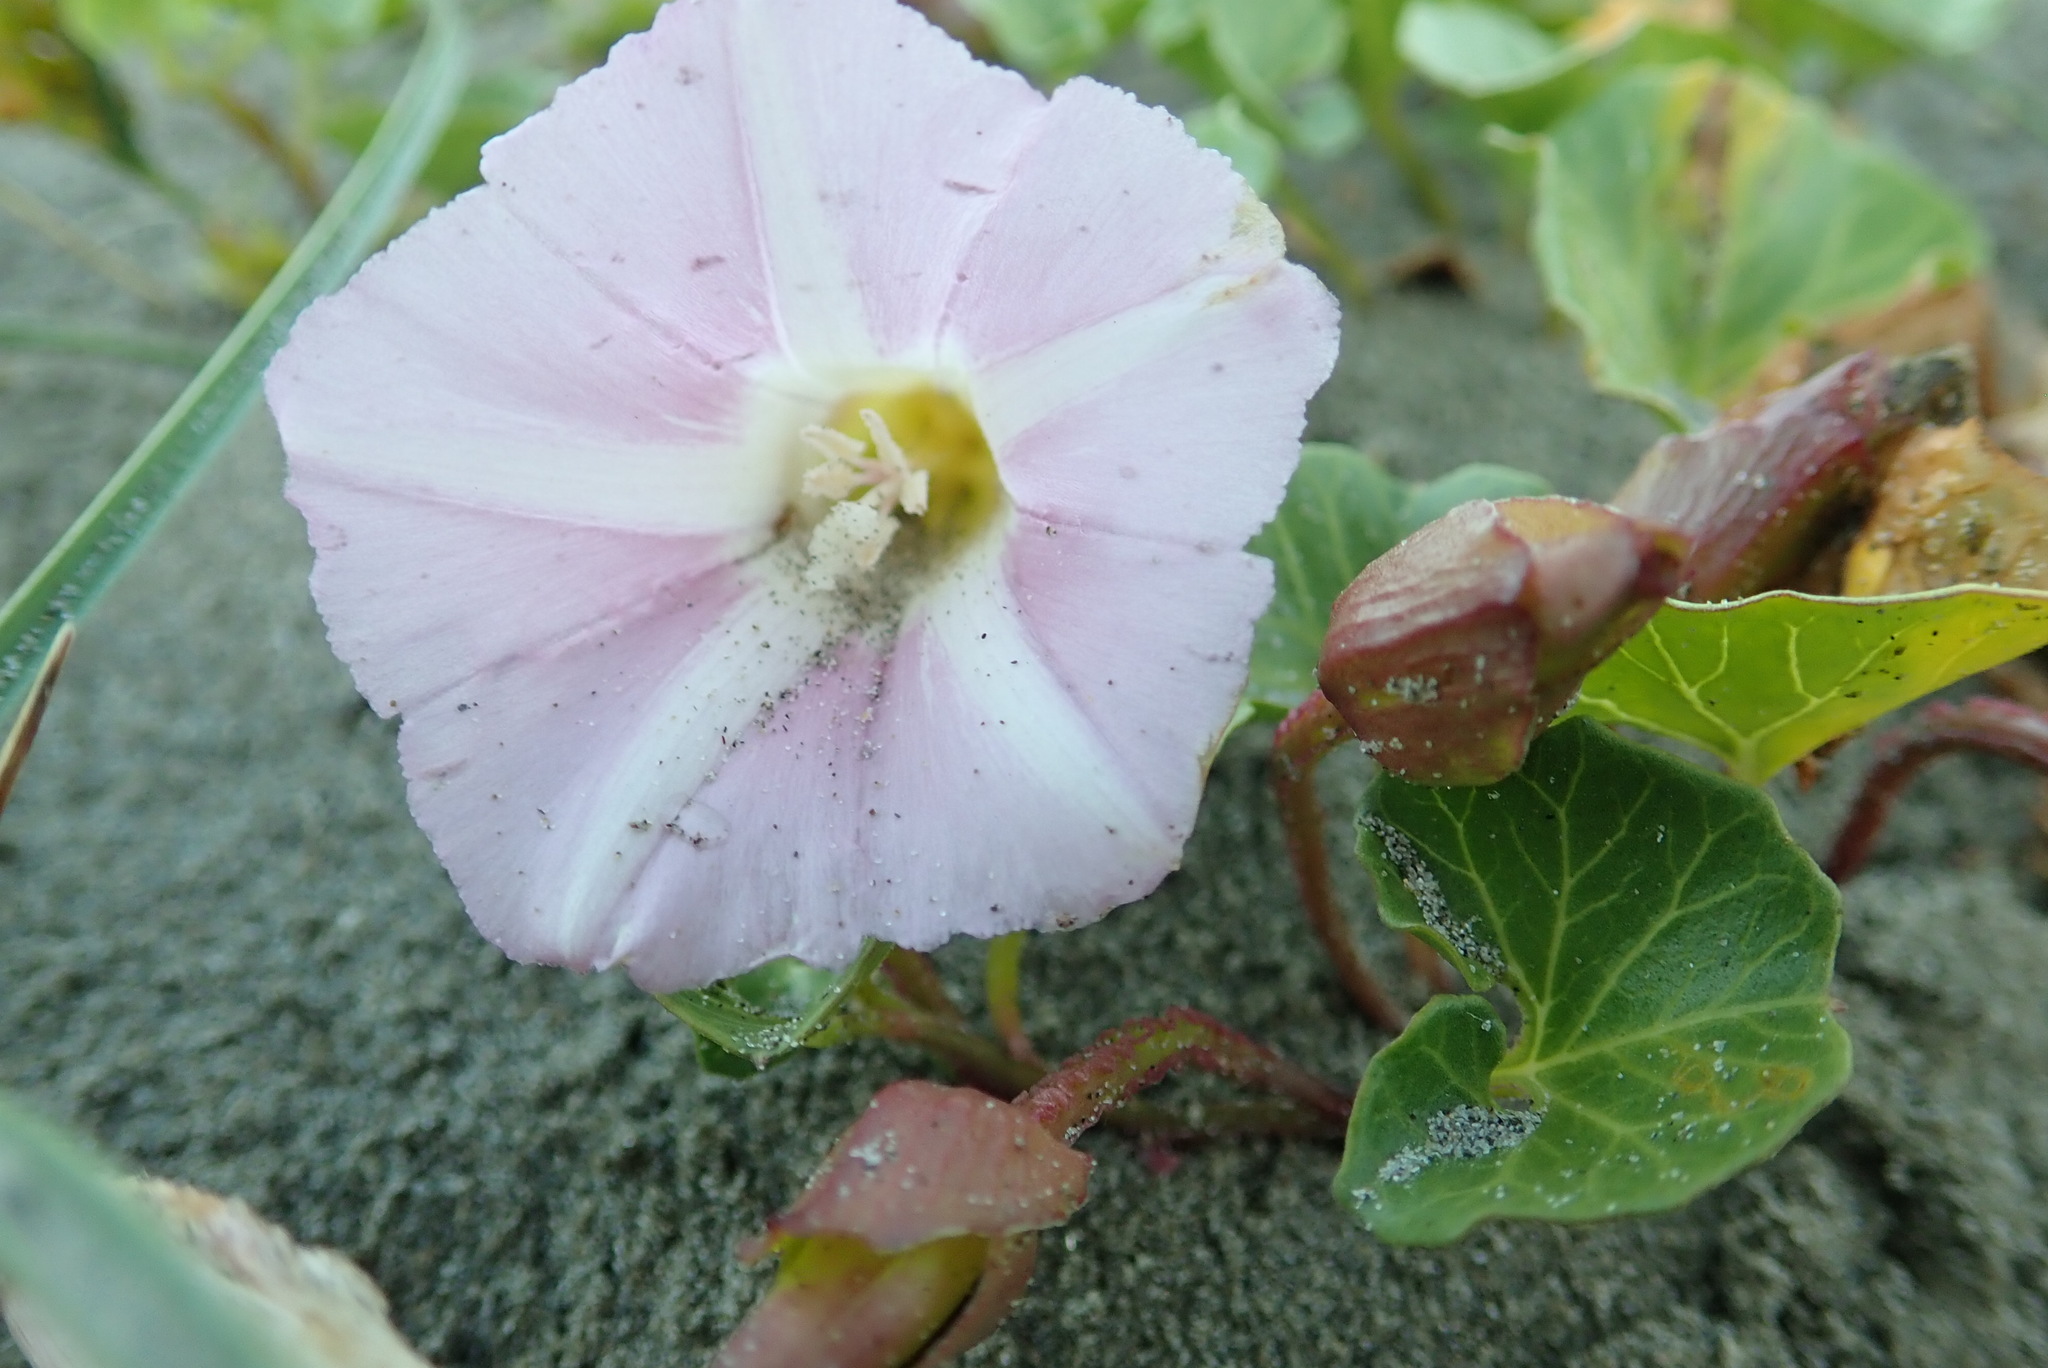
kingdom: Plantae
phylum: Tracheophyta
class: Magnoliopsida
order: Solanales
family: Convolvulaceae
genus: Calystegia
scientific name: Calystegia soldanella
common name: Sea bindweed
